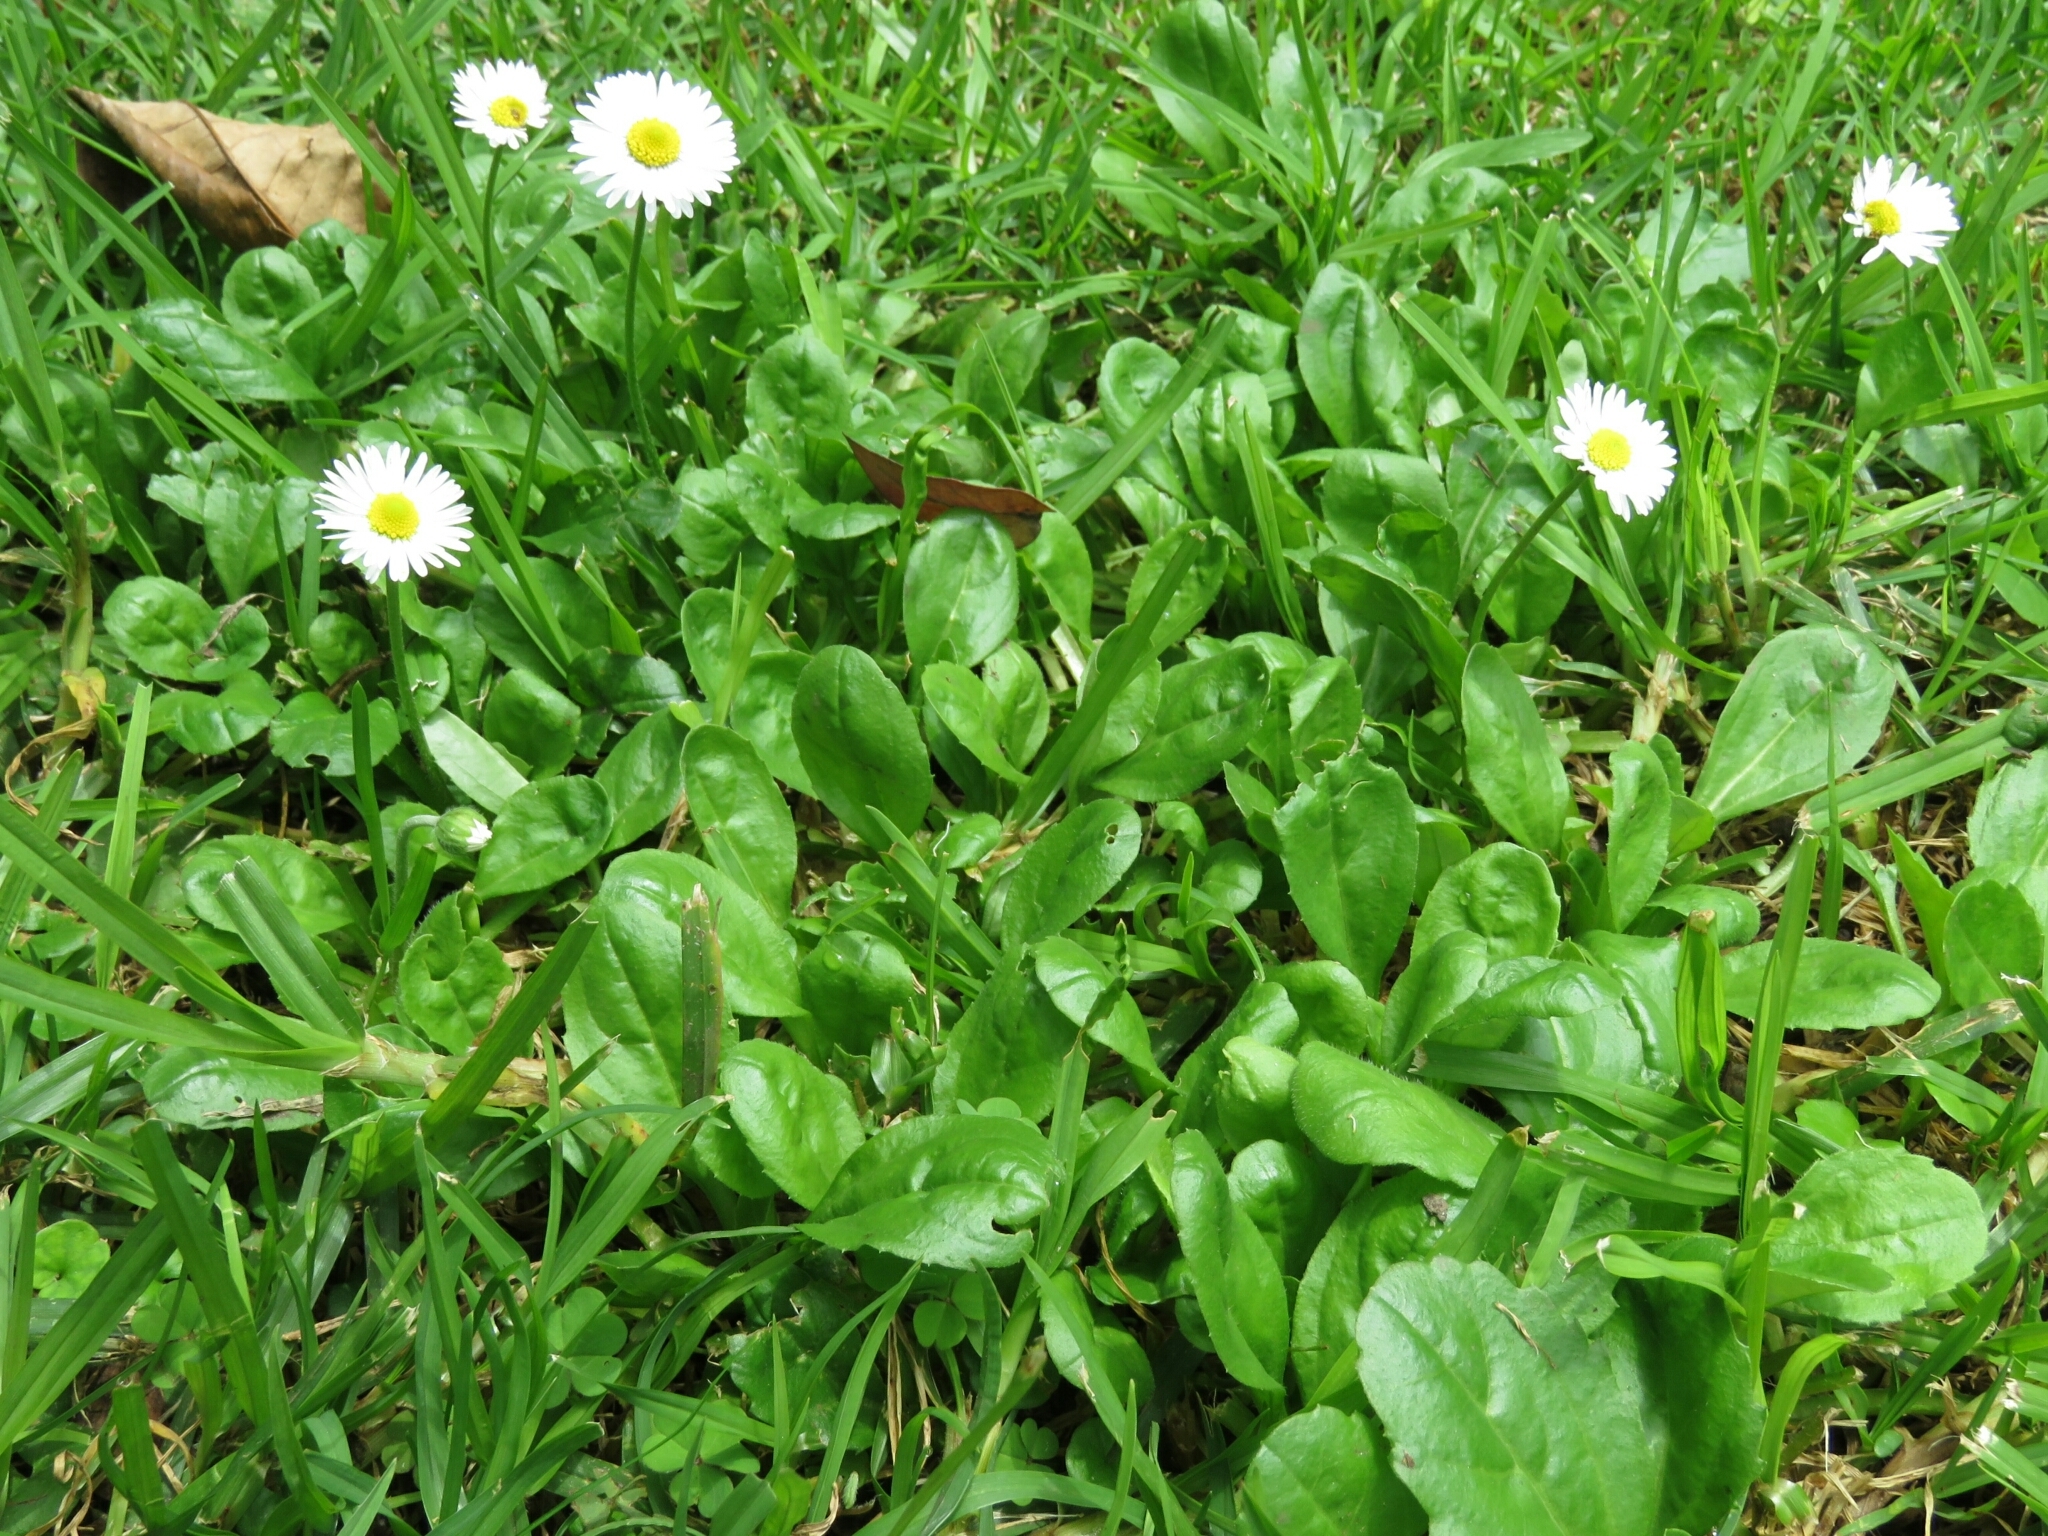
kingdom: Plantae
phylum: Tracheophyta
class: Magnoliopsida
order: Asterales
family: Asteraceae
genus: Bellis
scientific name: Bellis perennis
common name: Lawndaisy
